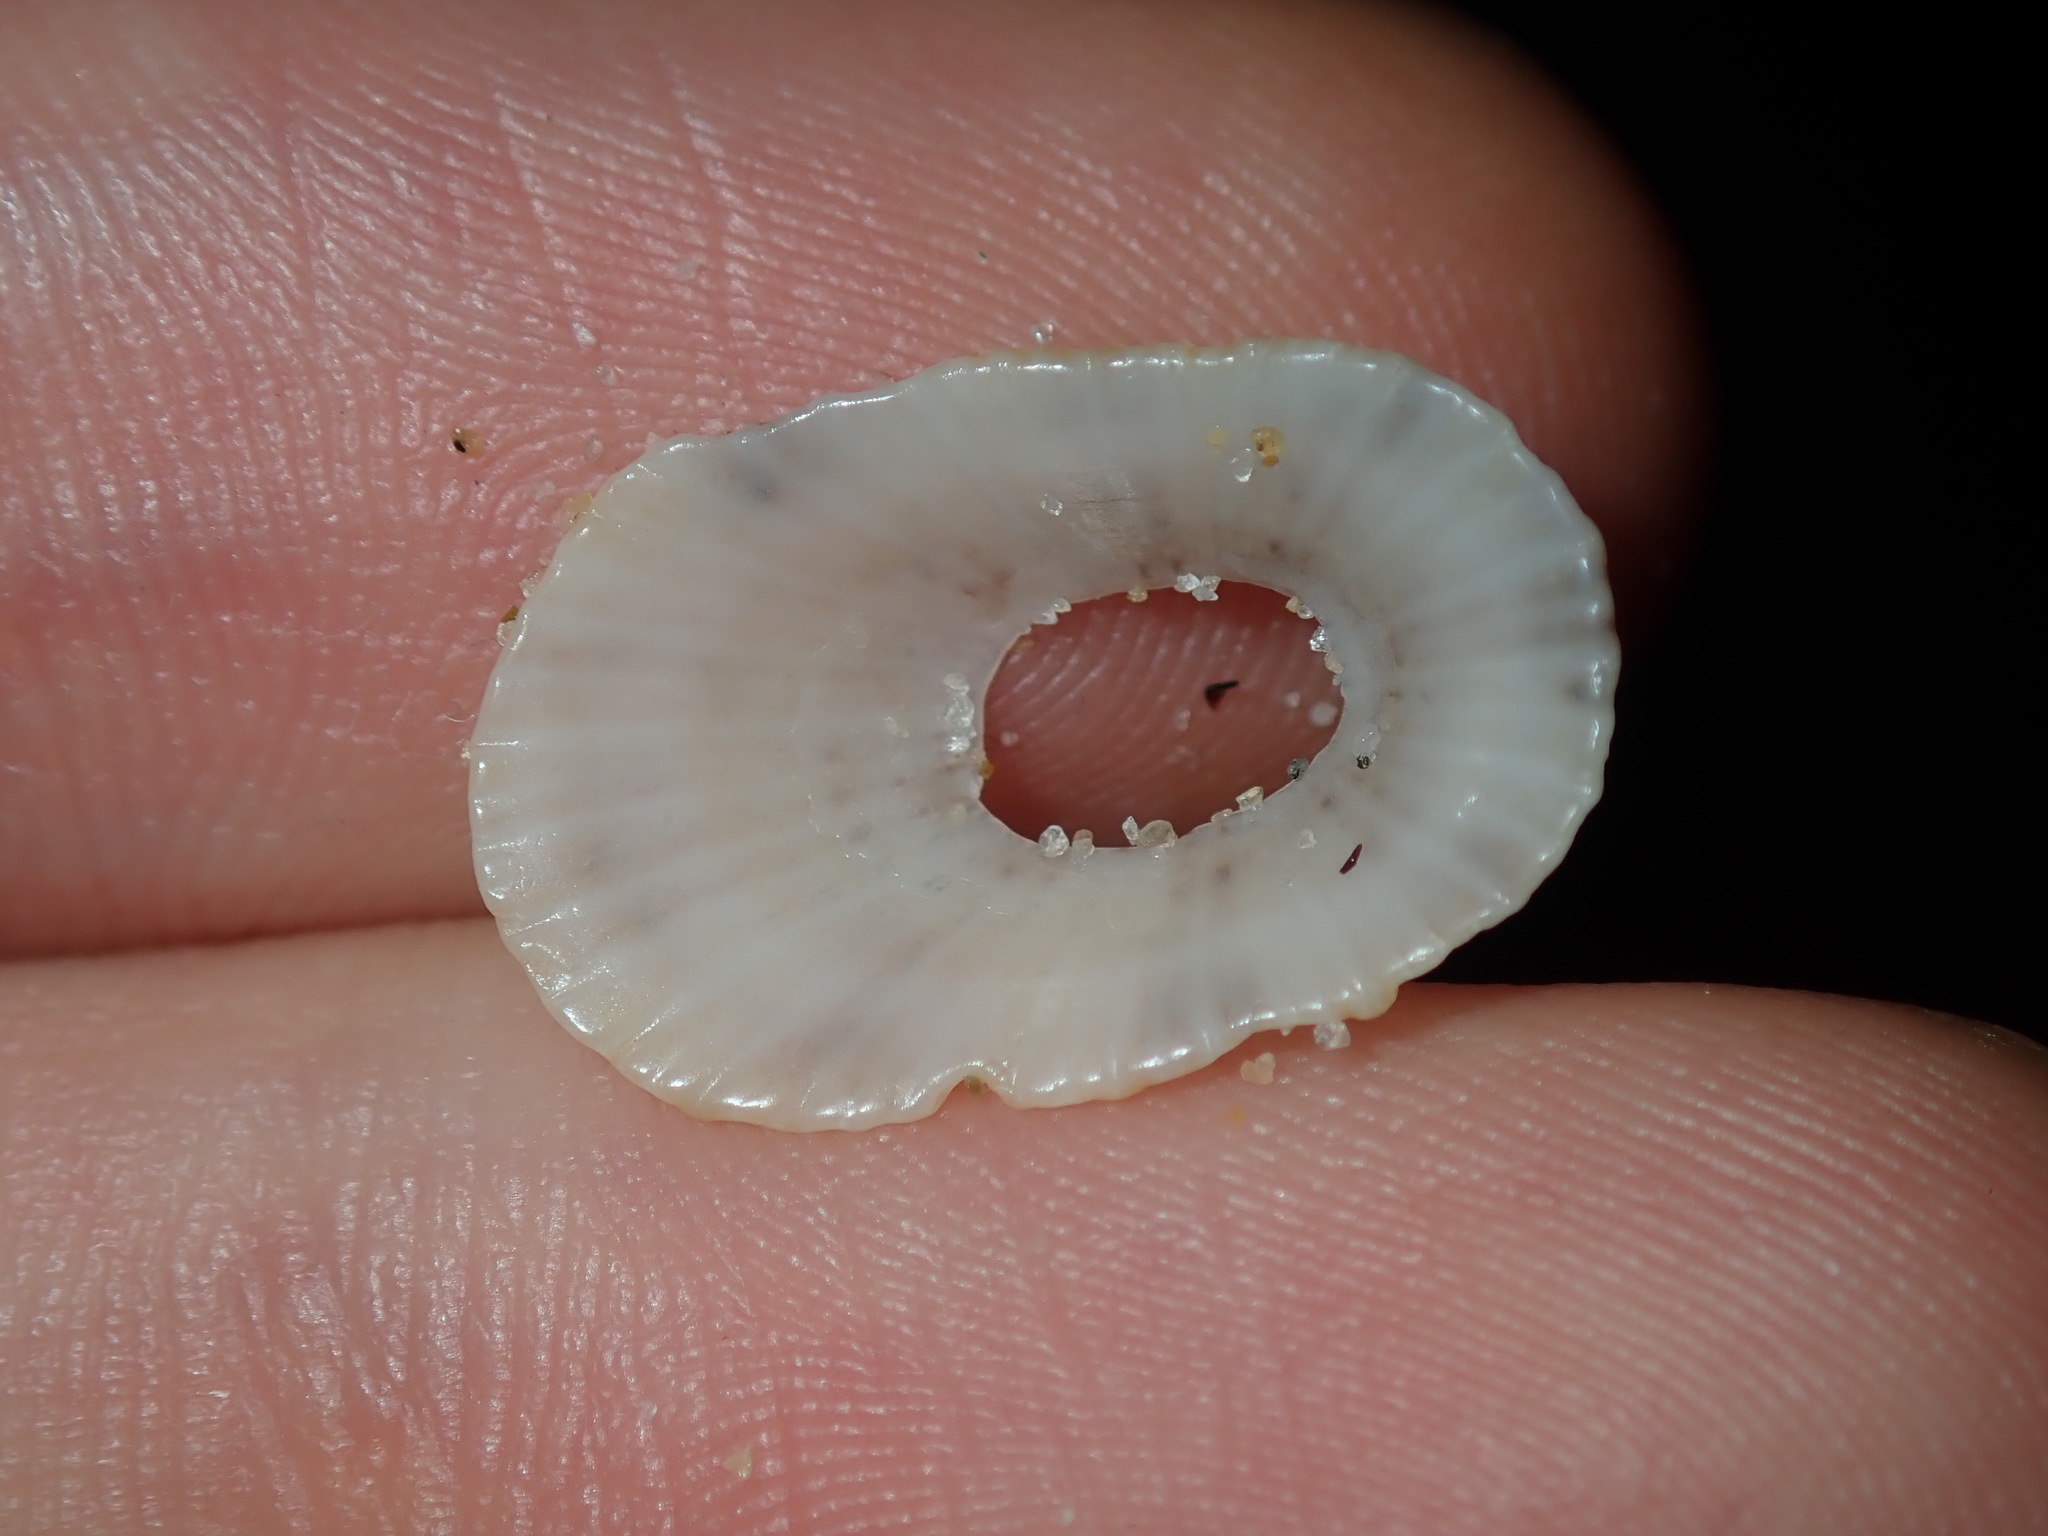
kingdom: Animalia
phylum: Mollusca
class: Gastropoda
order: Lepetellida
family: Fissurellidae
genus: Diodora
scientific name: Diodora lineata
